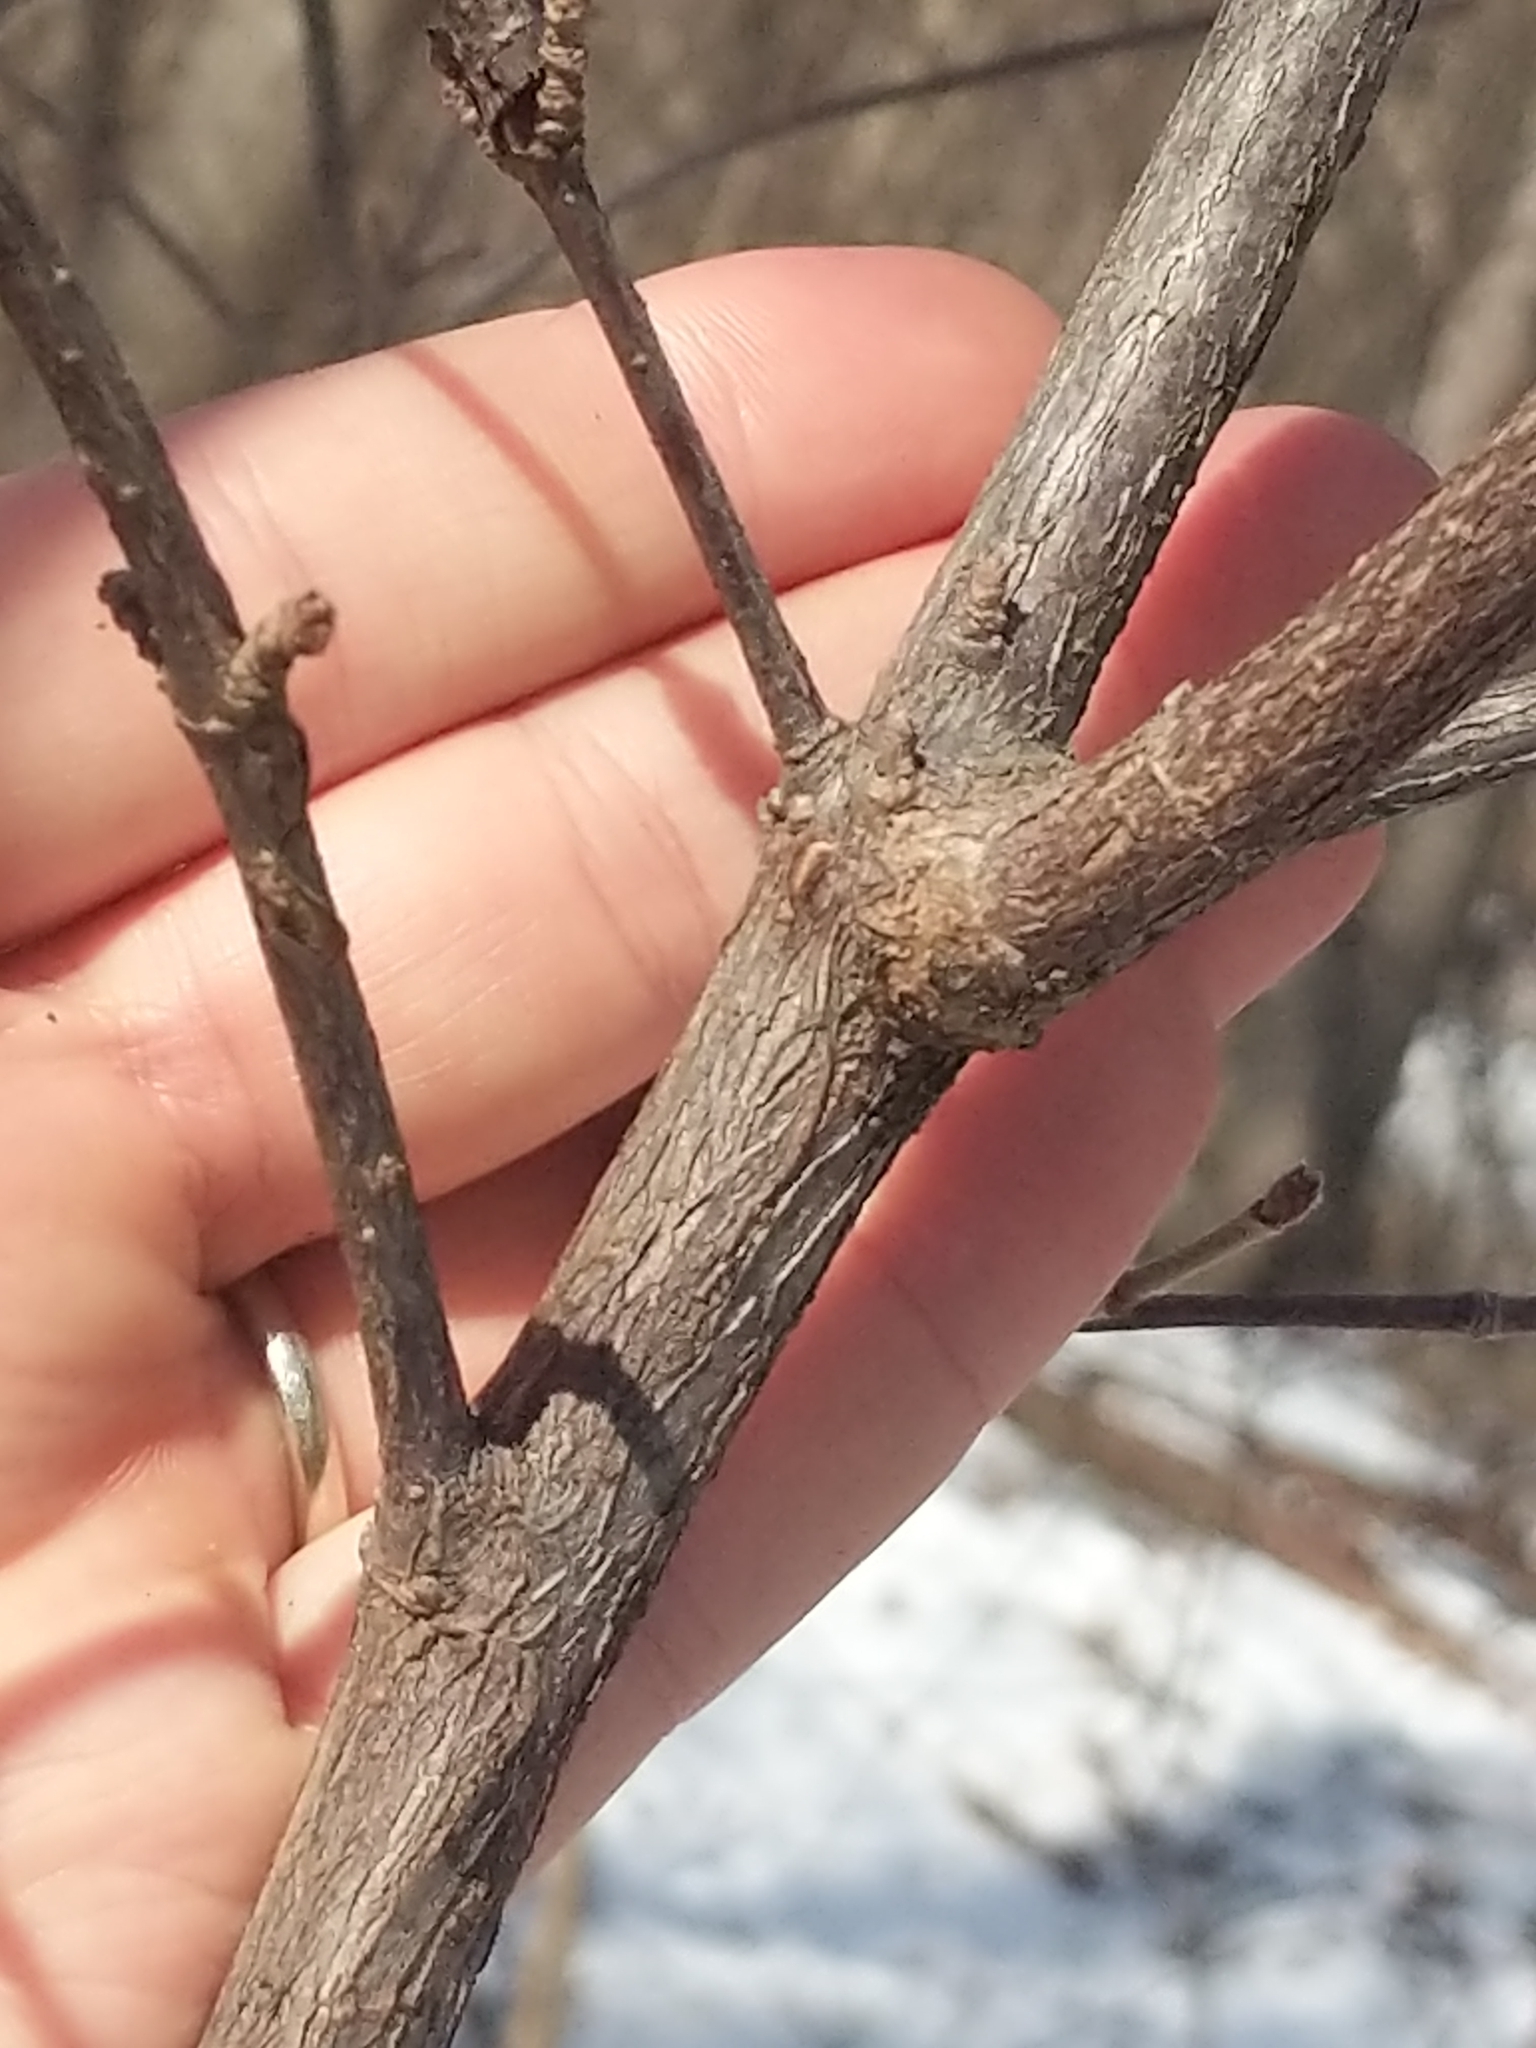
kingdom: Plantae
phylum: Tracheophyta
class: Magnoliopsida
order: Dipsacales
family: Viburnaceae
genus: Viburnum
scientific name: Viburnum dilatatum
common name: Linden arrowwood
